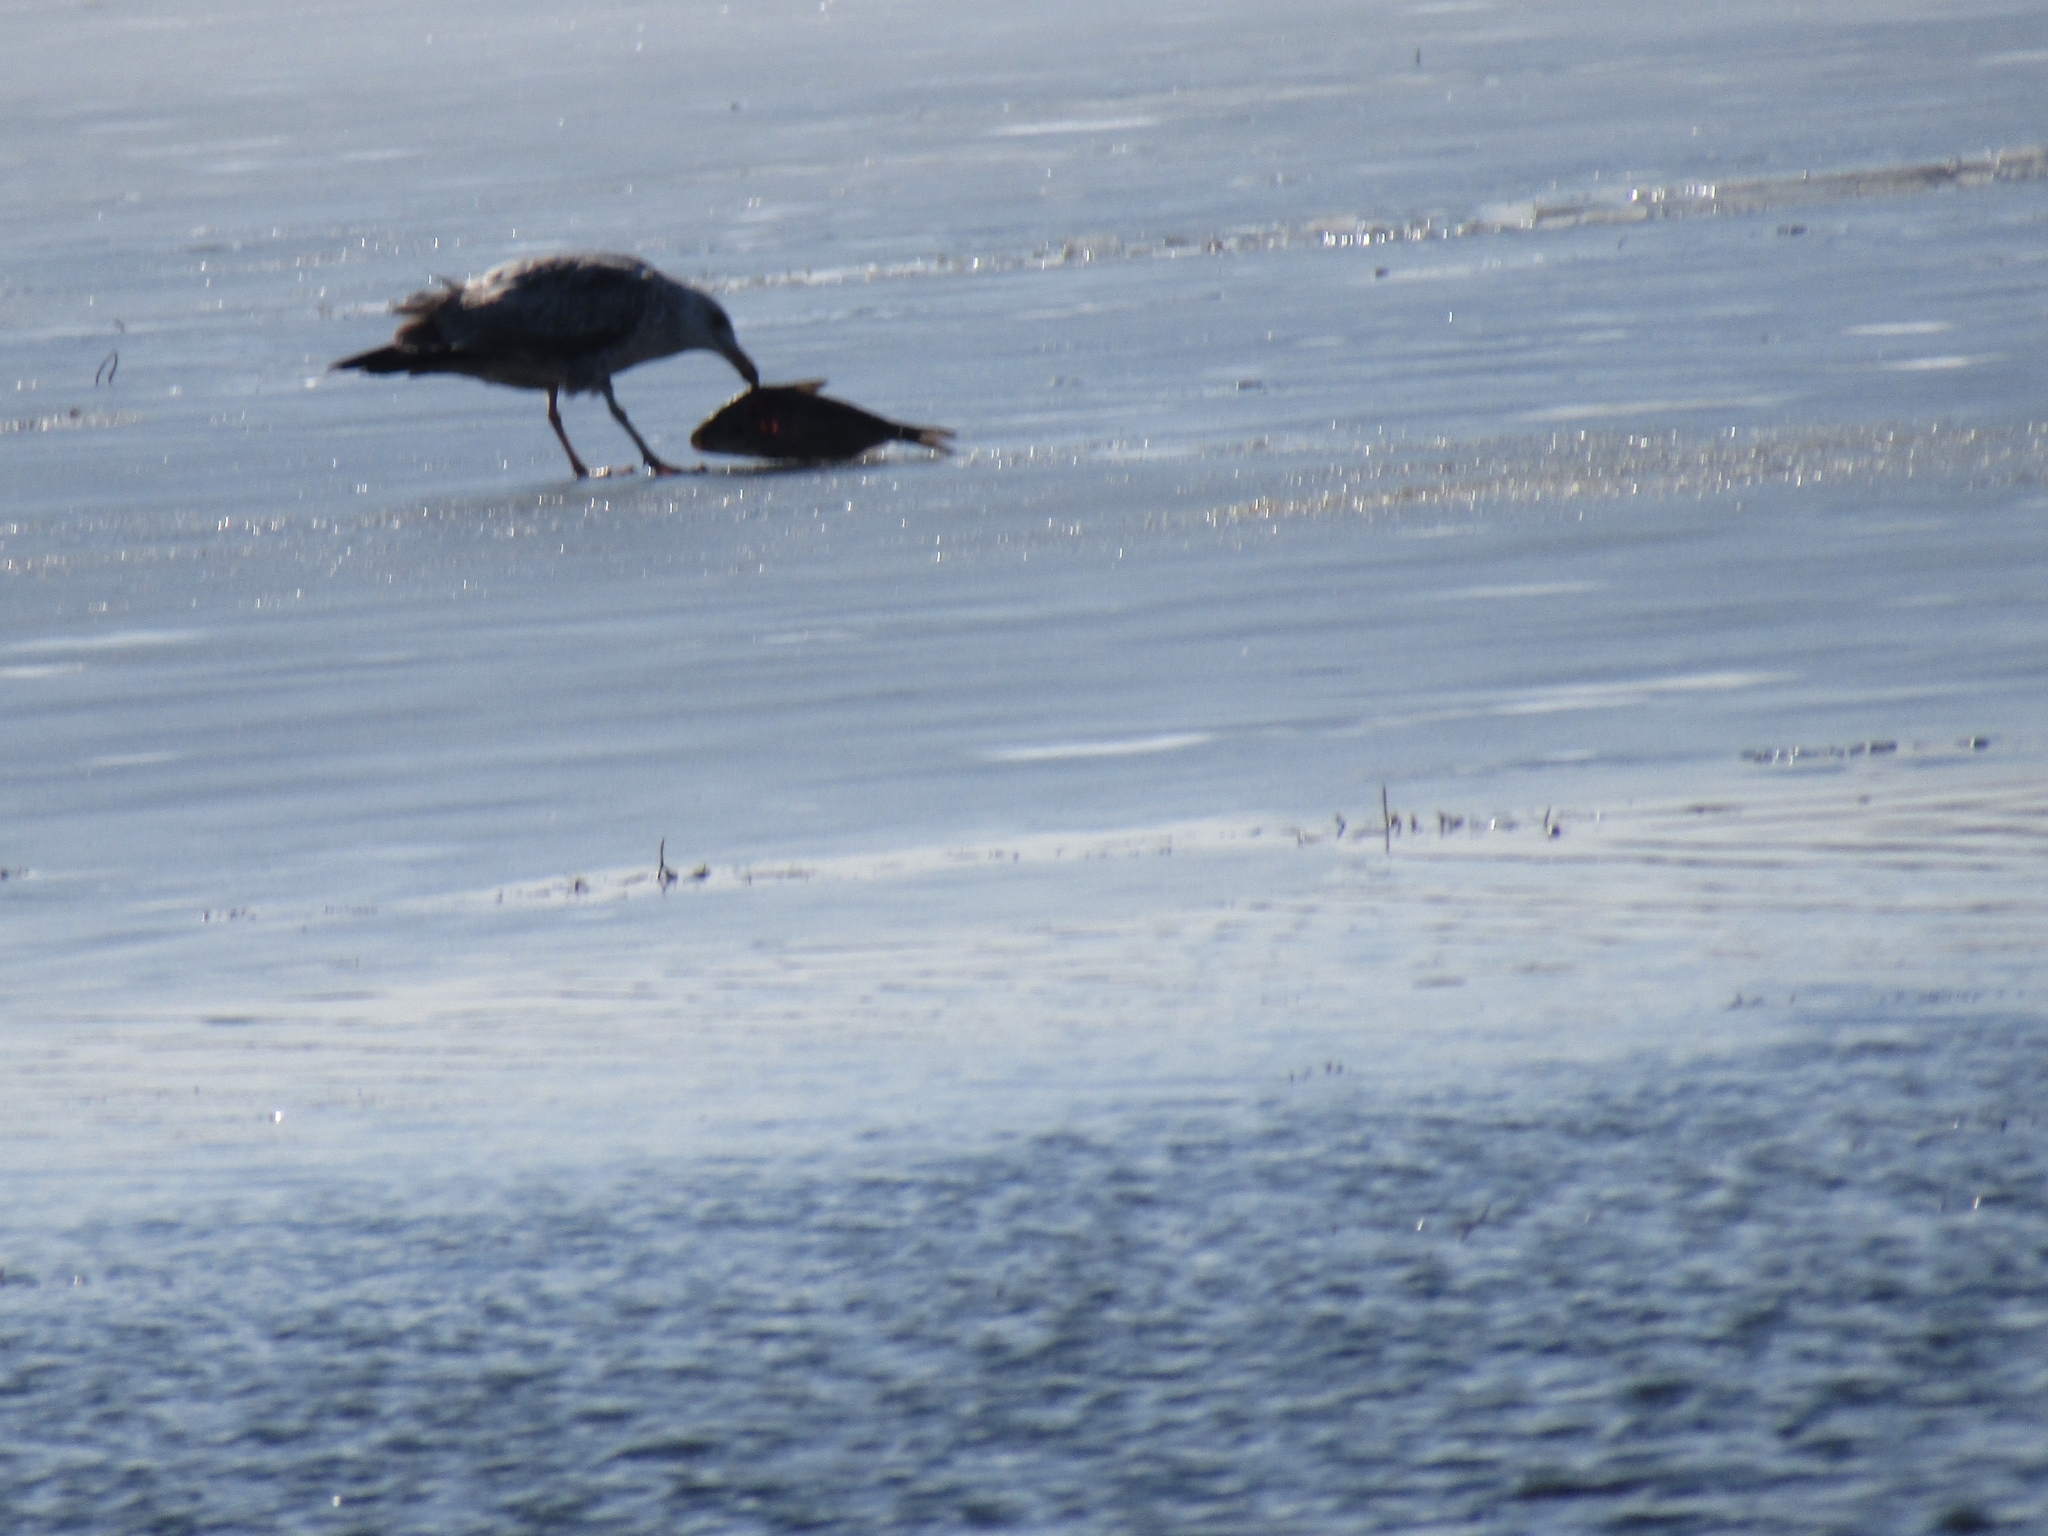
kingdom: Animalia
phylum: Chordata
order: Clupeiformes
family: Clupeidae
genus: Dorosoma
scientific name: Dorosoma cepedianum
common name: Gizzard shad
